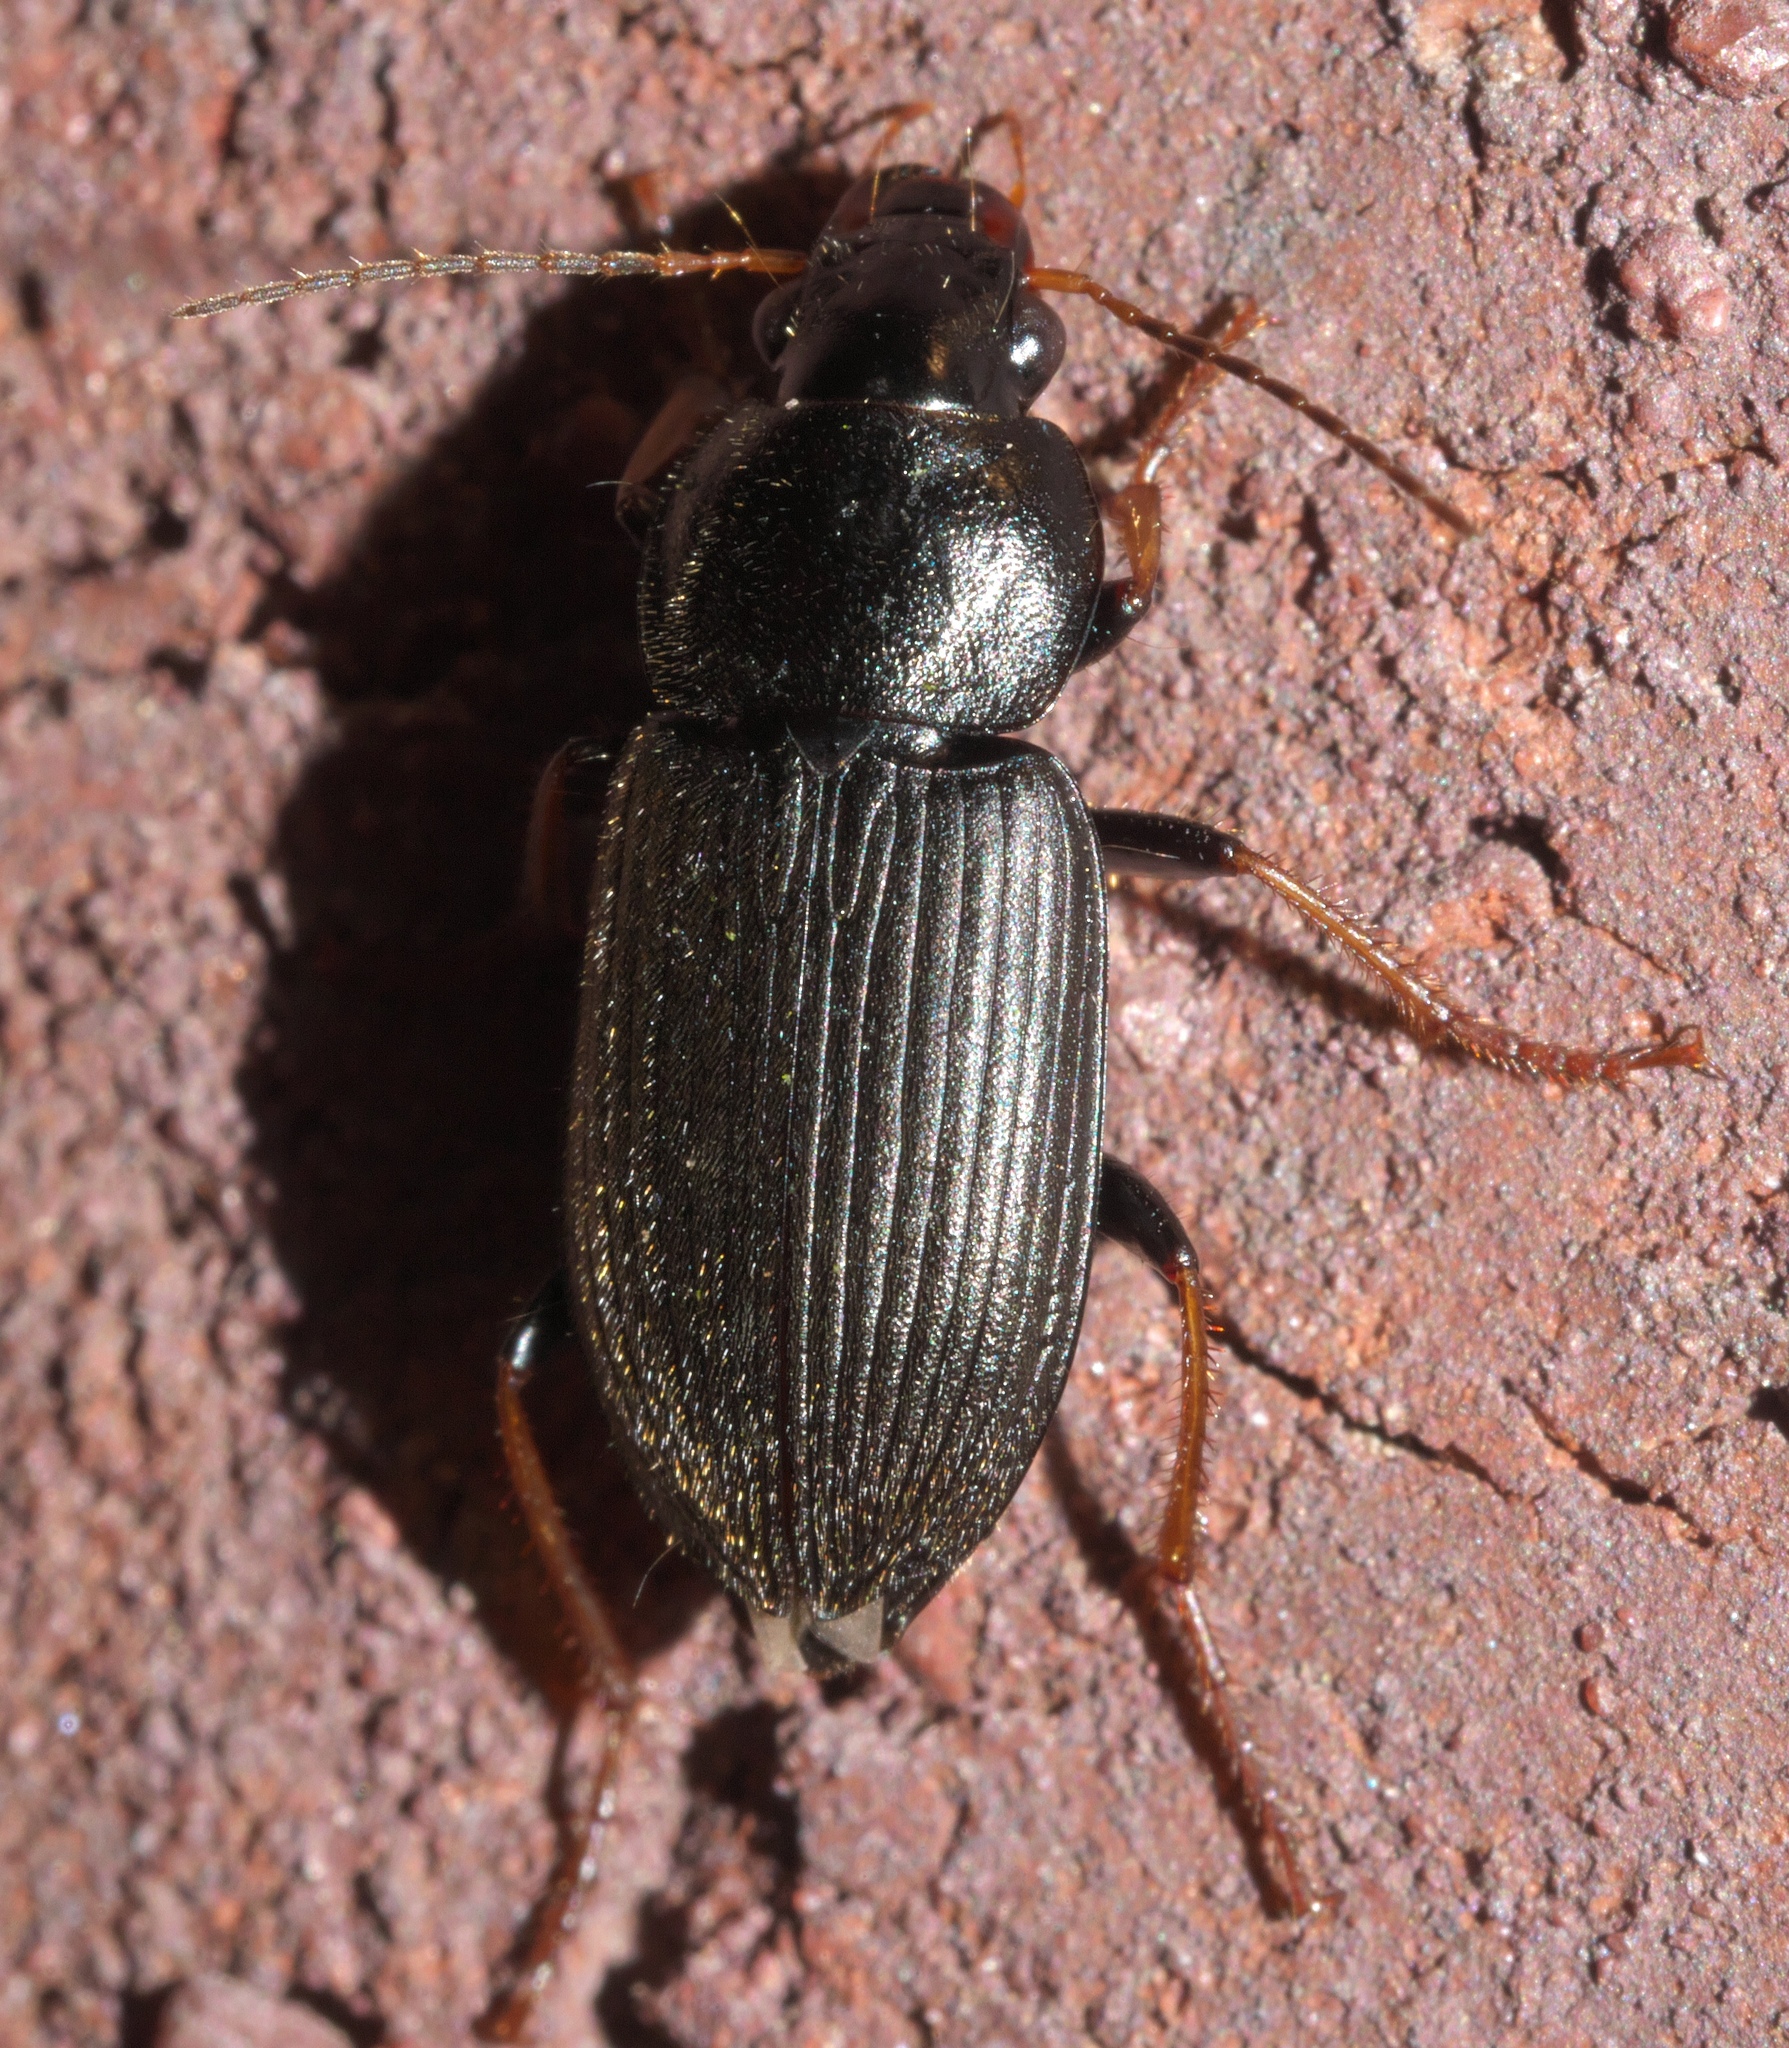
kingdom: Animalia
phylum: Arthropoda
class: Insecta
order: Coleoptera
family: Carabidae
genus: Amphasia
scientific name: Amphasia sericea
